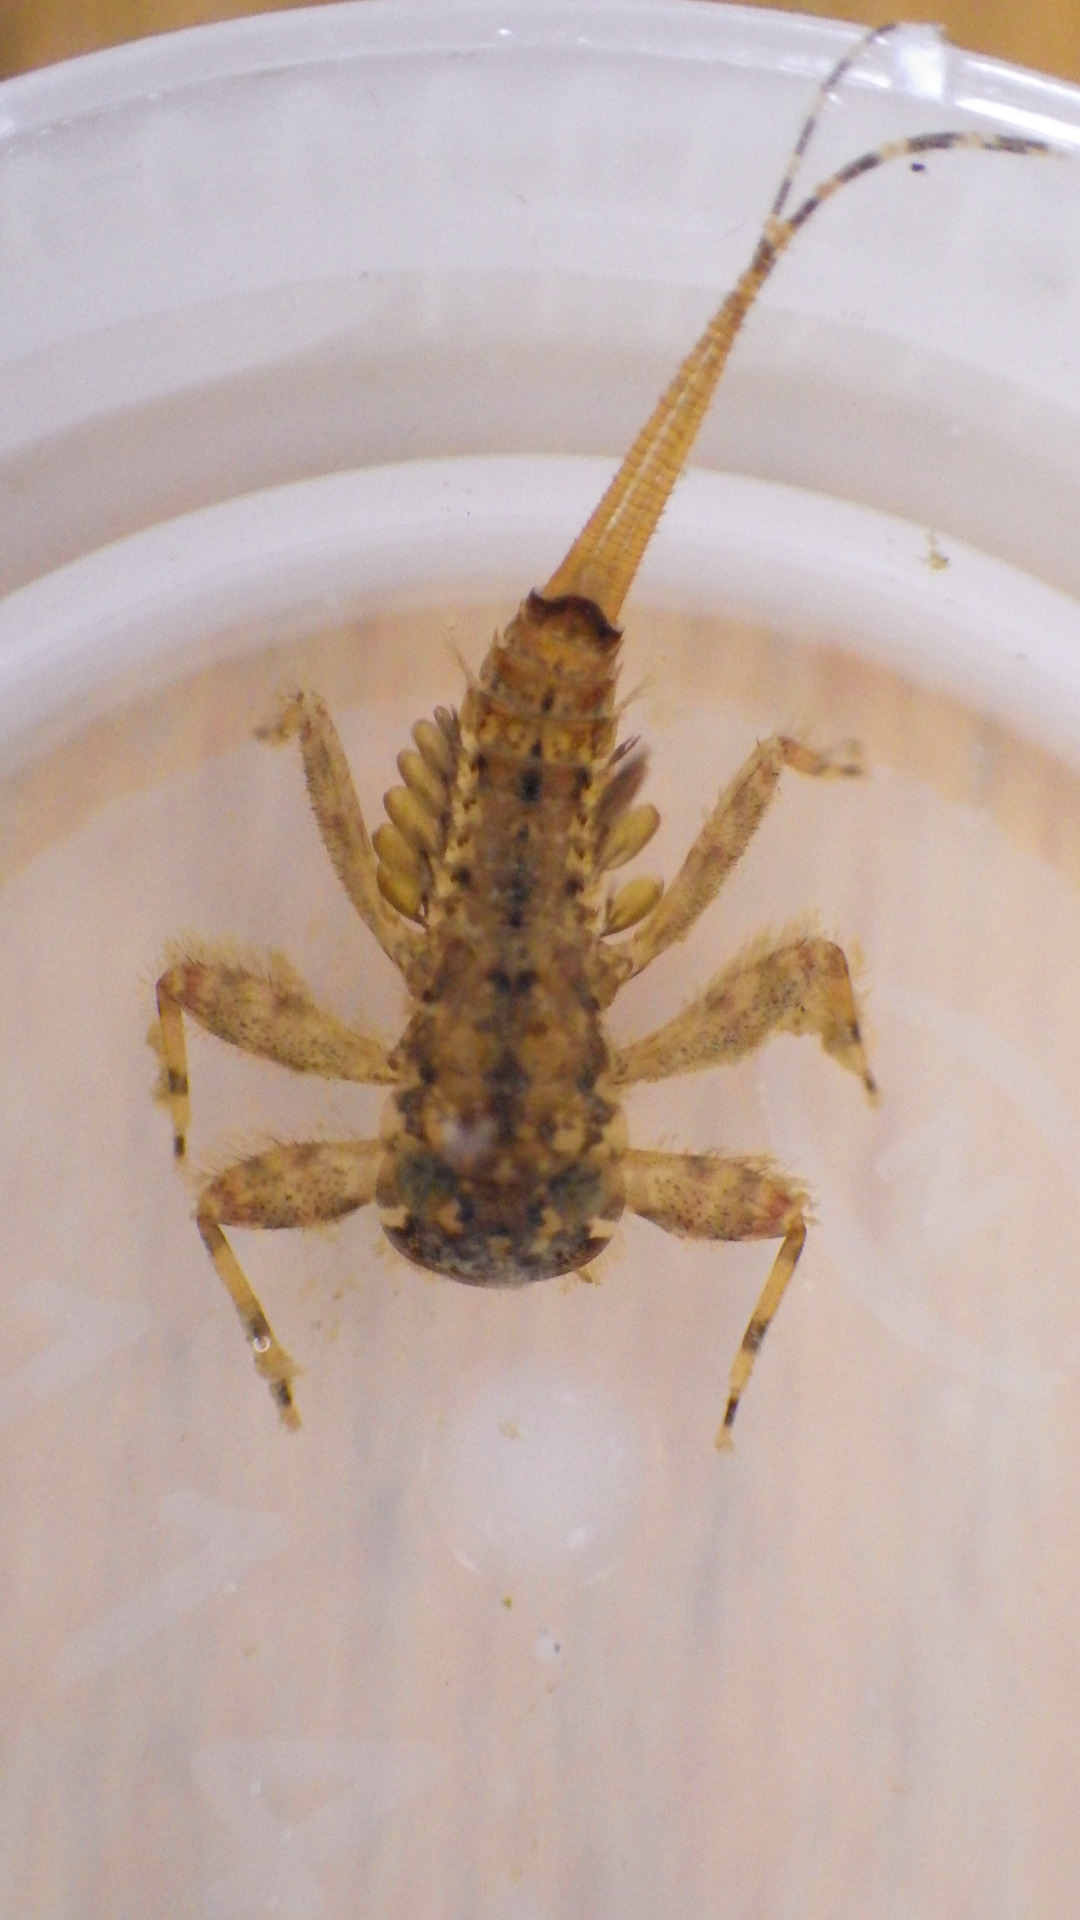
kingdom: Animalia
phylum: Arthropoda
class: Insecta
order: Ephemeroptera
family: Heptageniidae
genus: Maccaffertium
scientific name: Maccaffertium modestum
